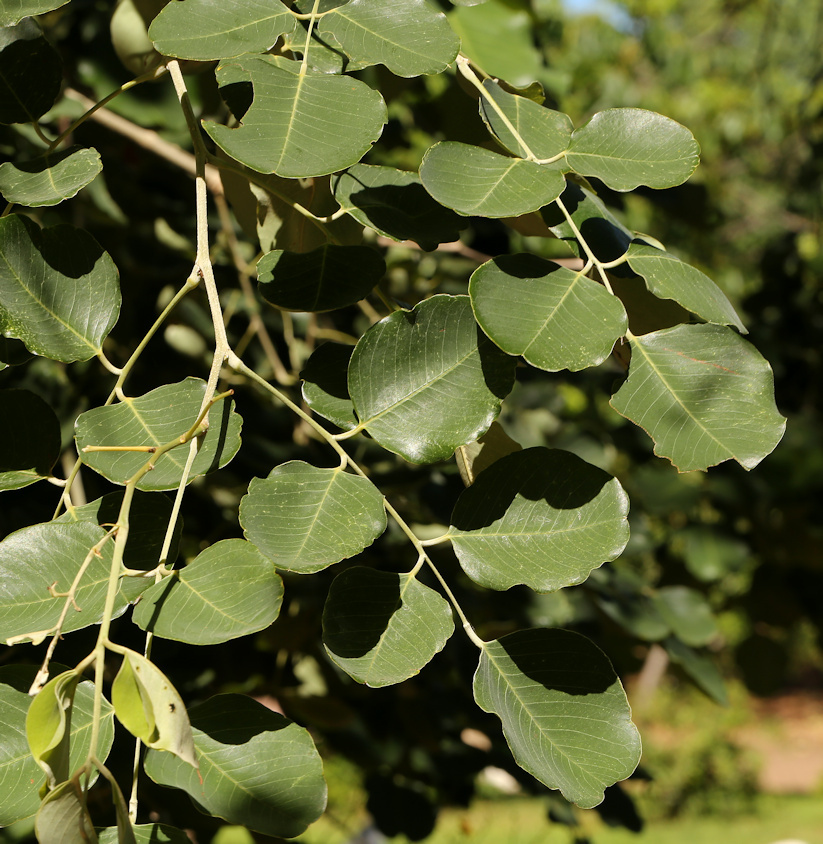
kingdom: Plantae
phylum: Tracheophyta
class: Magnoliopsida
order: Fabales
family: Fabaceae
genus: Pterocarpus
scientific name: Pterocarpus rotundifolius
